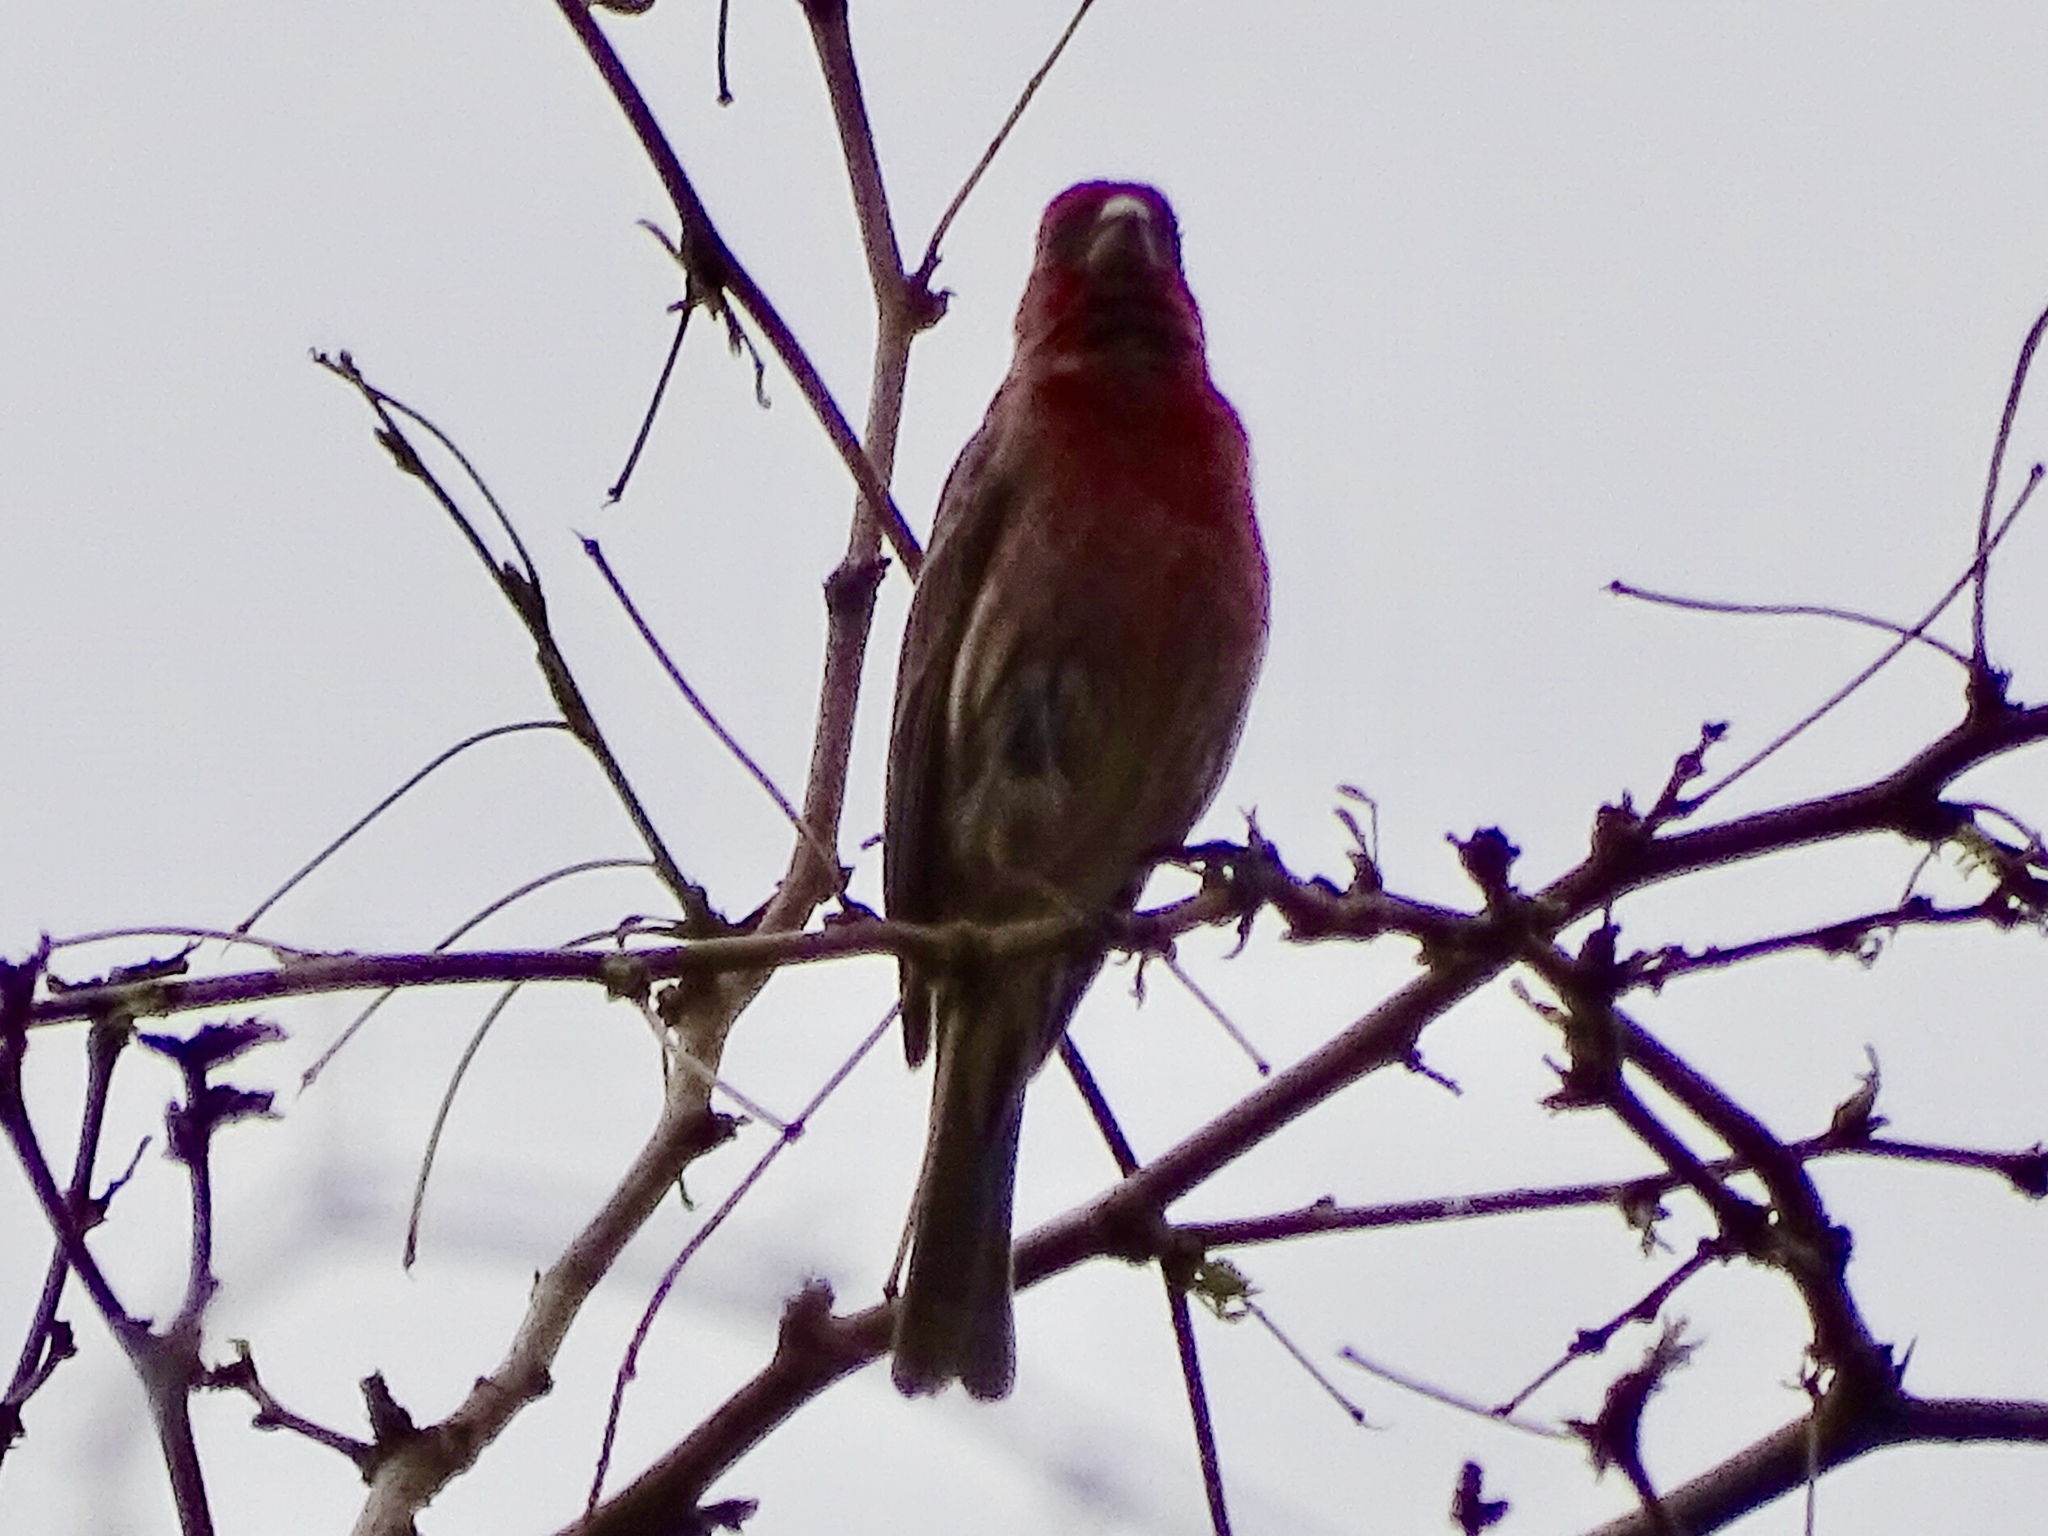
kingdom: Animalia
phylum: Chordata
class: Aves
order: Passeriformes
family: Fringillidae
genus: Haemorhous
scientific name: Haemorhous mexicanus
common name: House finch
